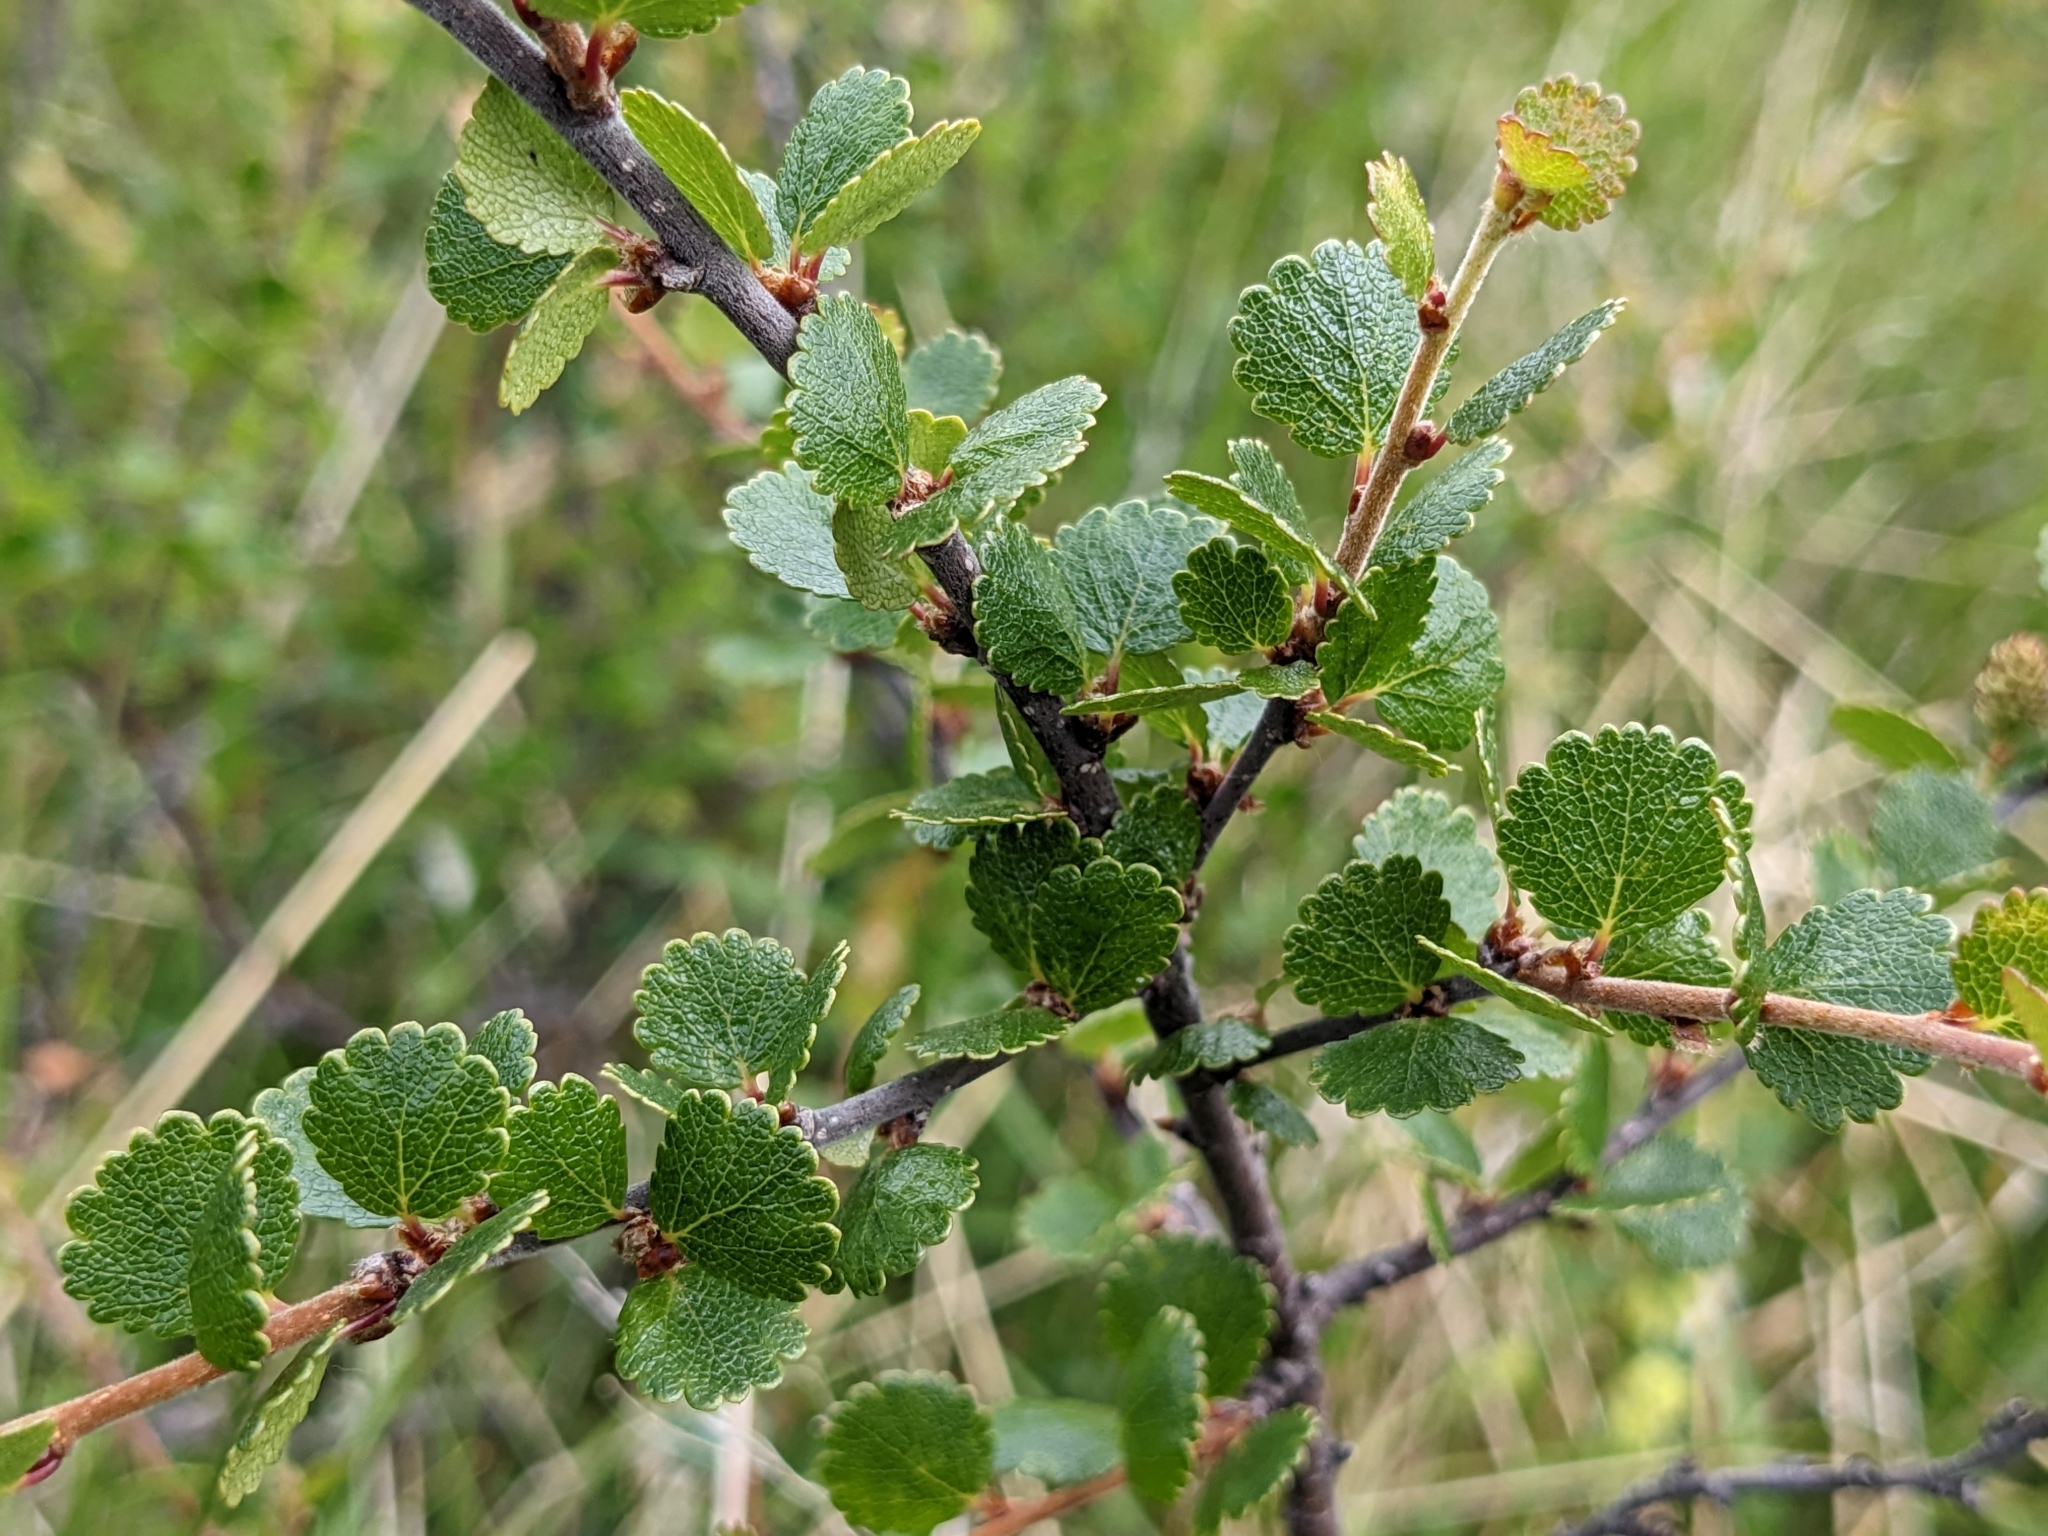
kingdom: Plantae
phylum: Tracheophyta
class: Magnoliopsida
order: Fagales
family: Betulaceae
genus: Betula
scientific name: Betula nana
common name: Arctic dwarf birch
